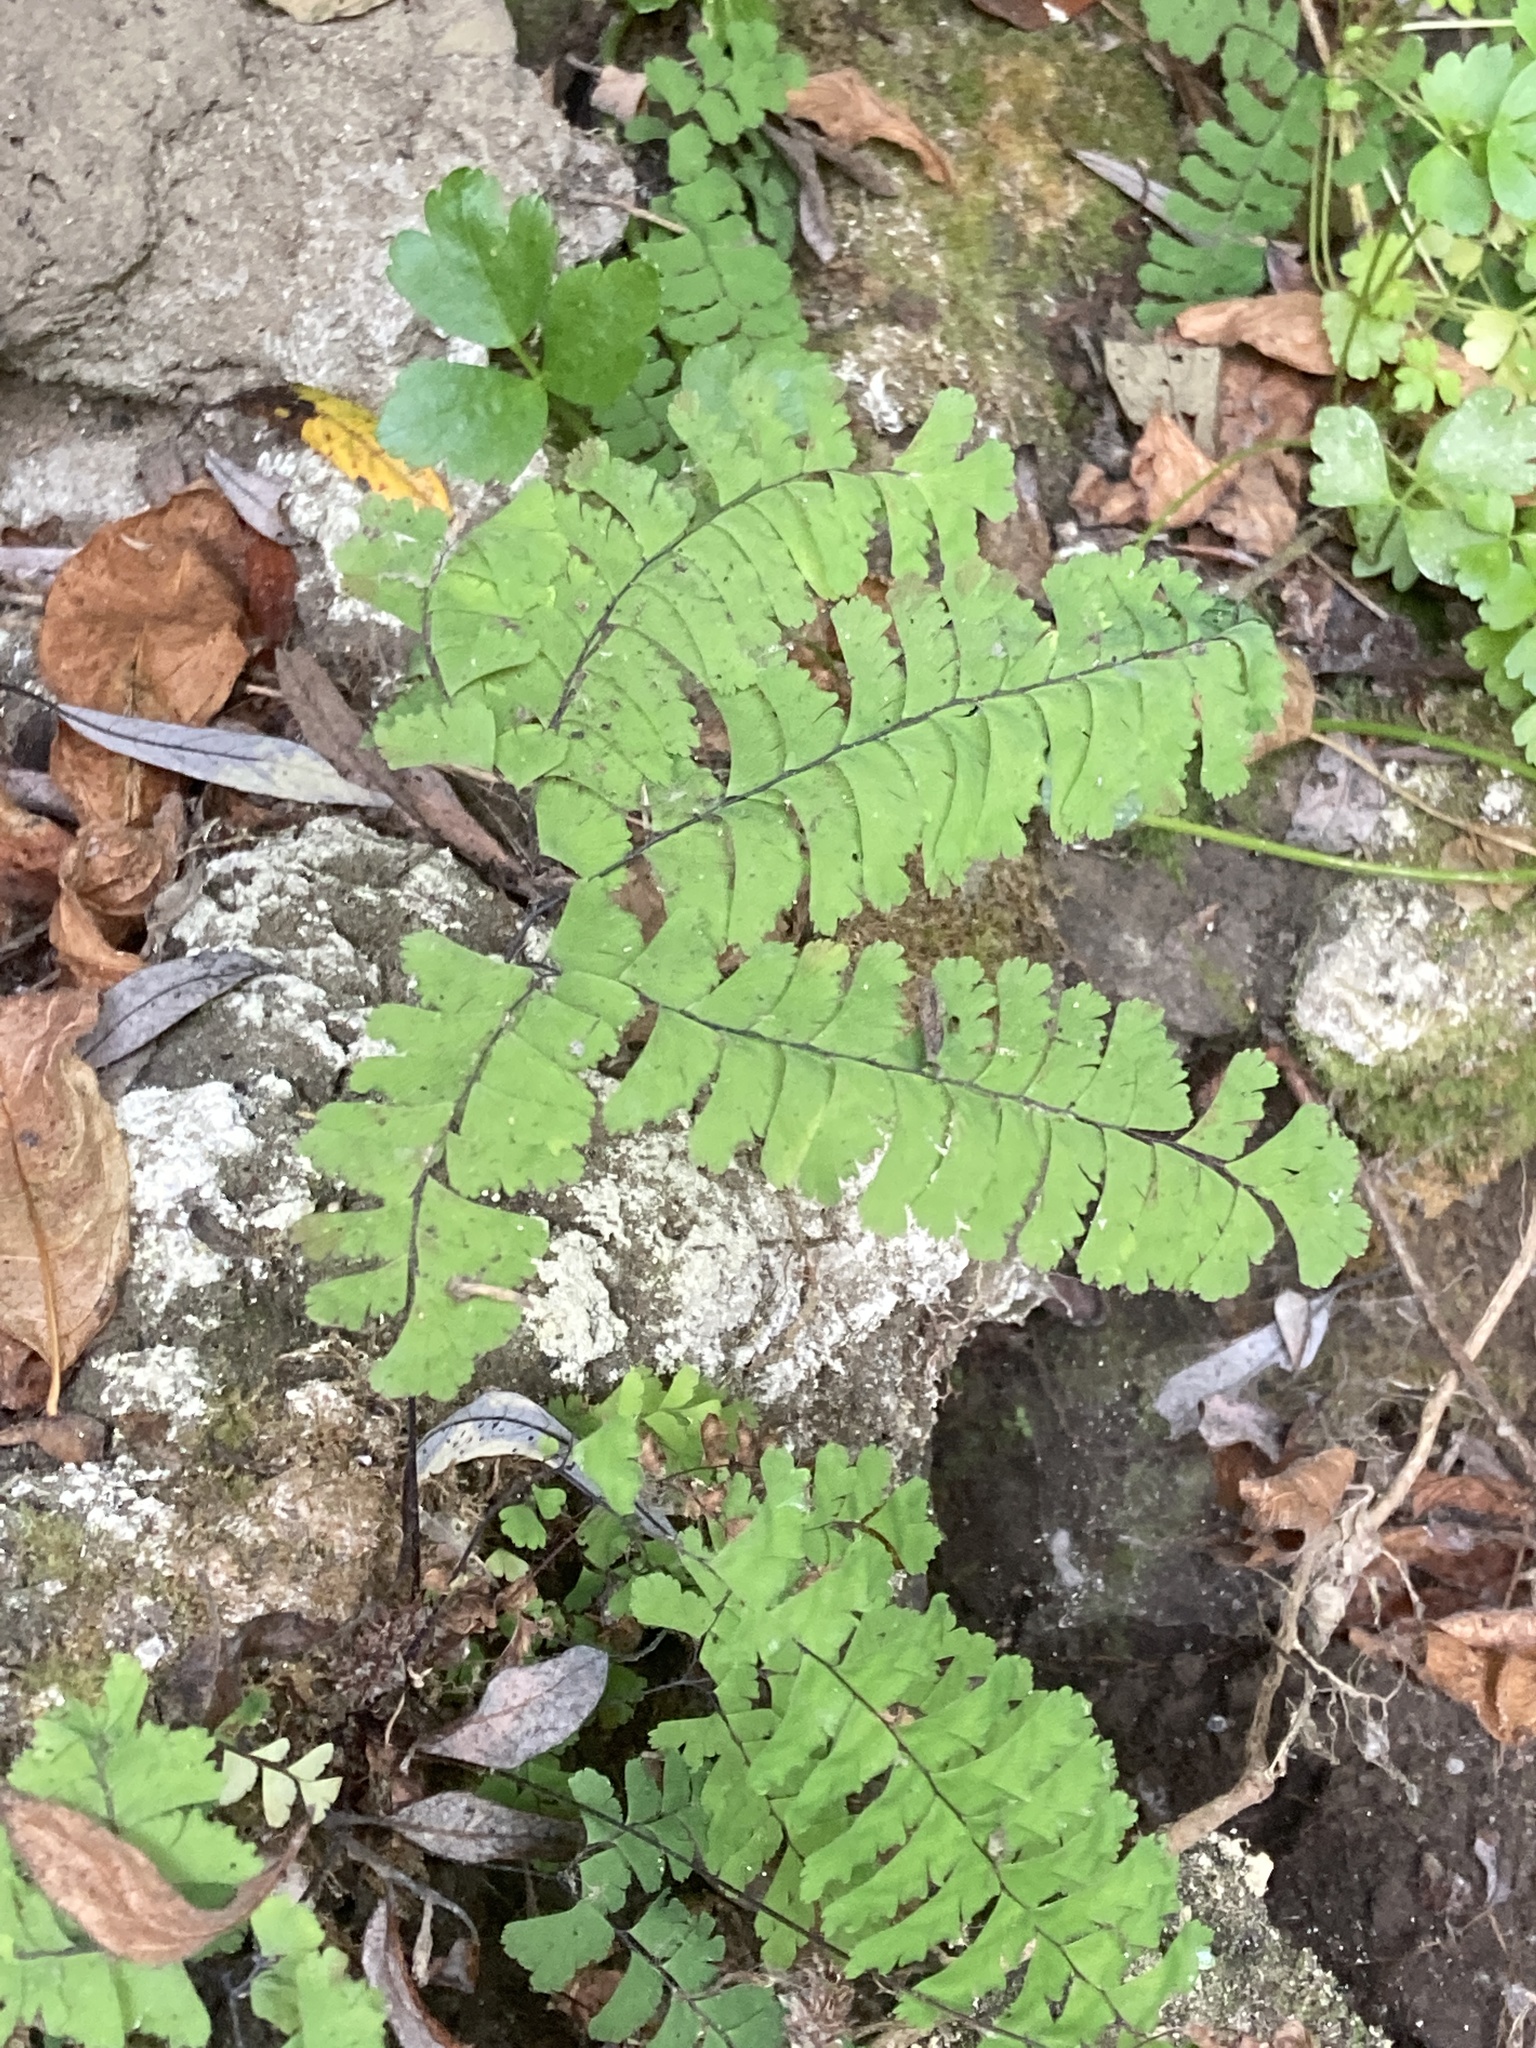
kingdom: Plantae
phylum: Tracheophyta
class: Polypodiopsida
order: Polypodiales
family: Pteridaceae
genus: Adiantum
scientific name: Adiantum aleuticum
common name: Aleutian maidenhair fern
